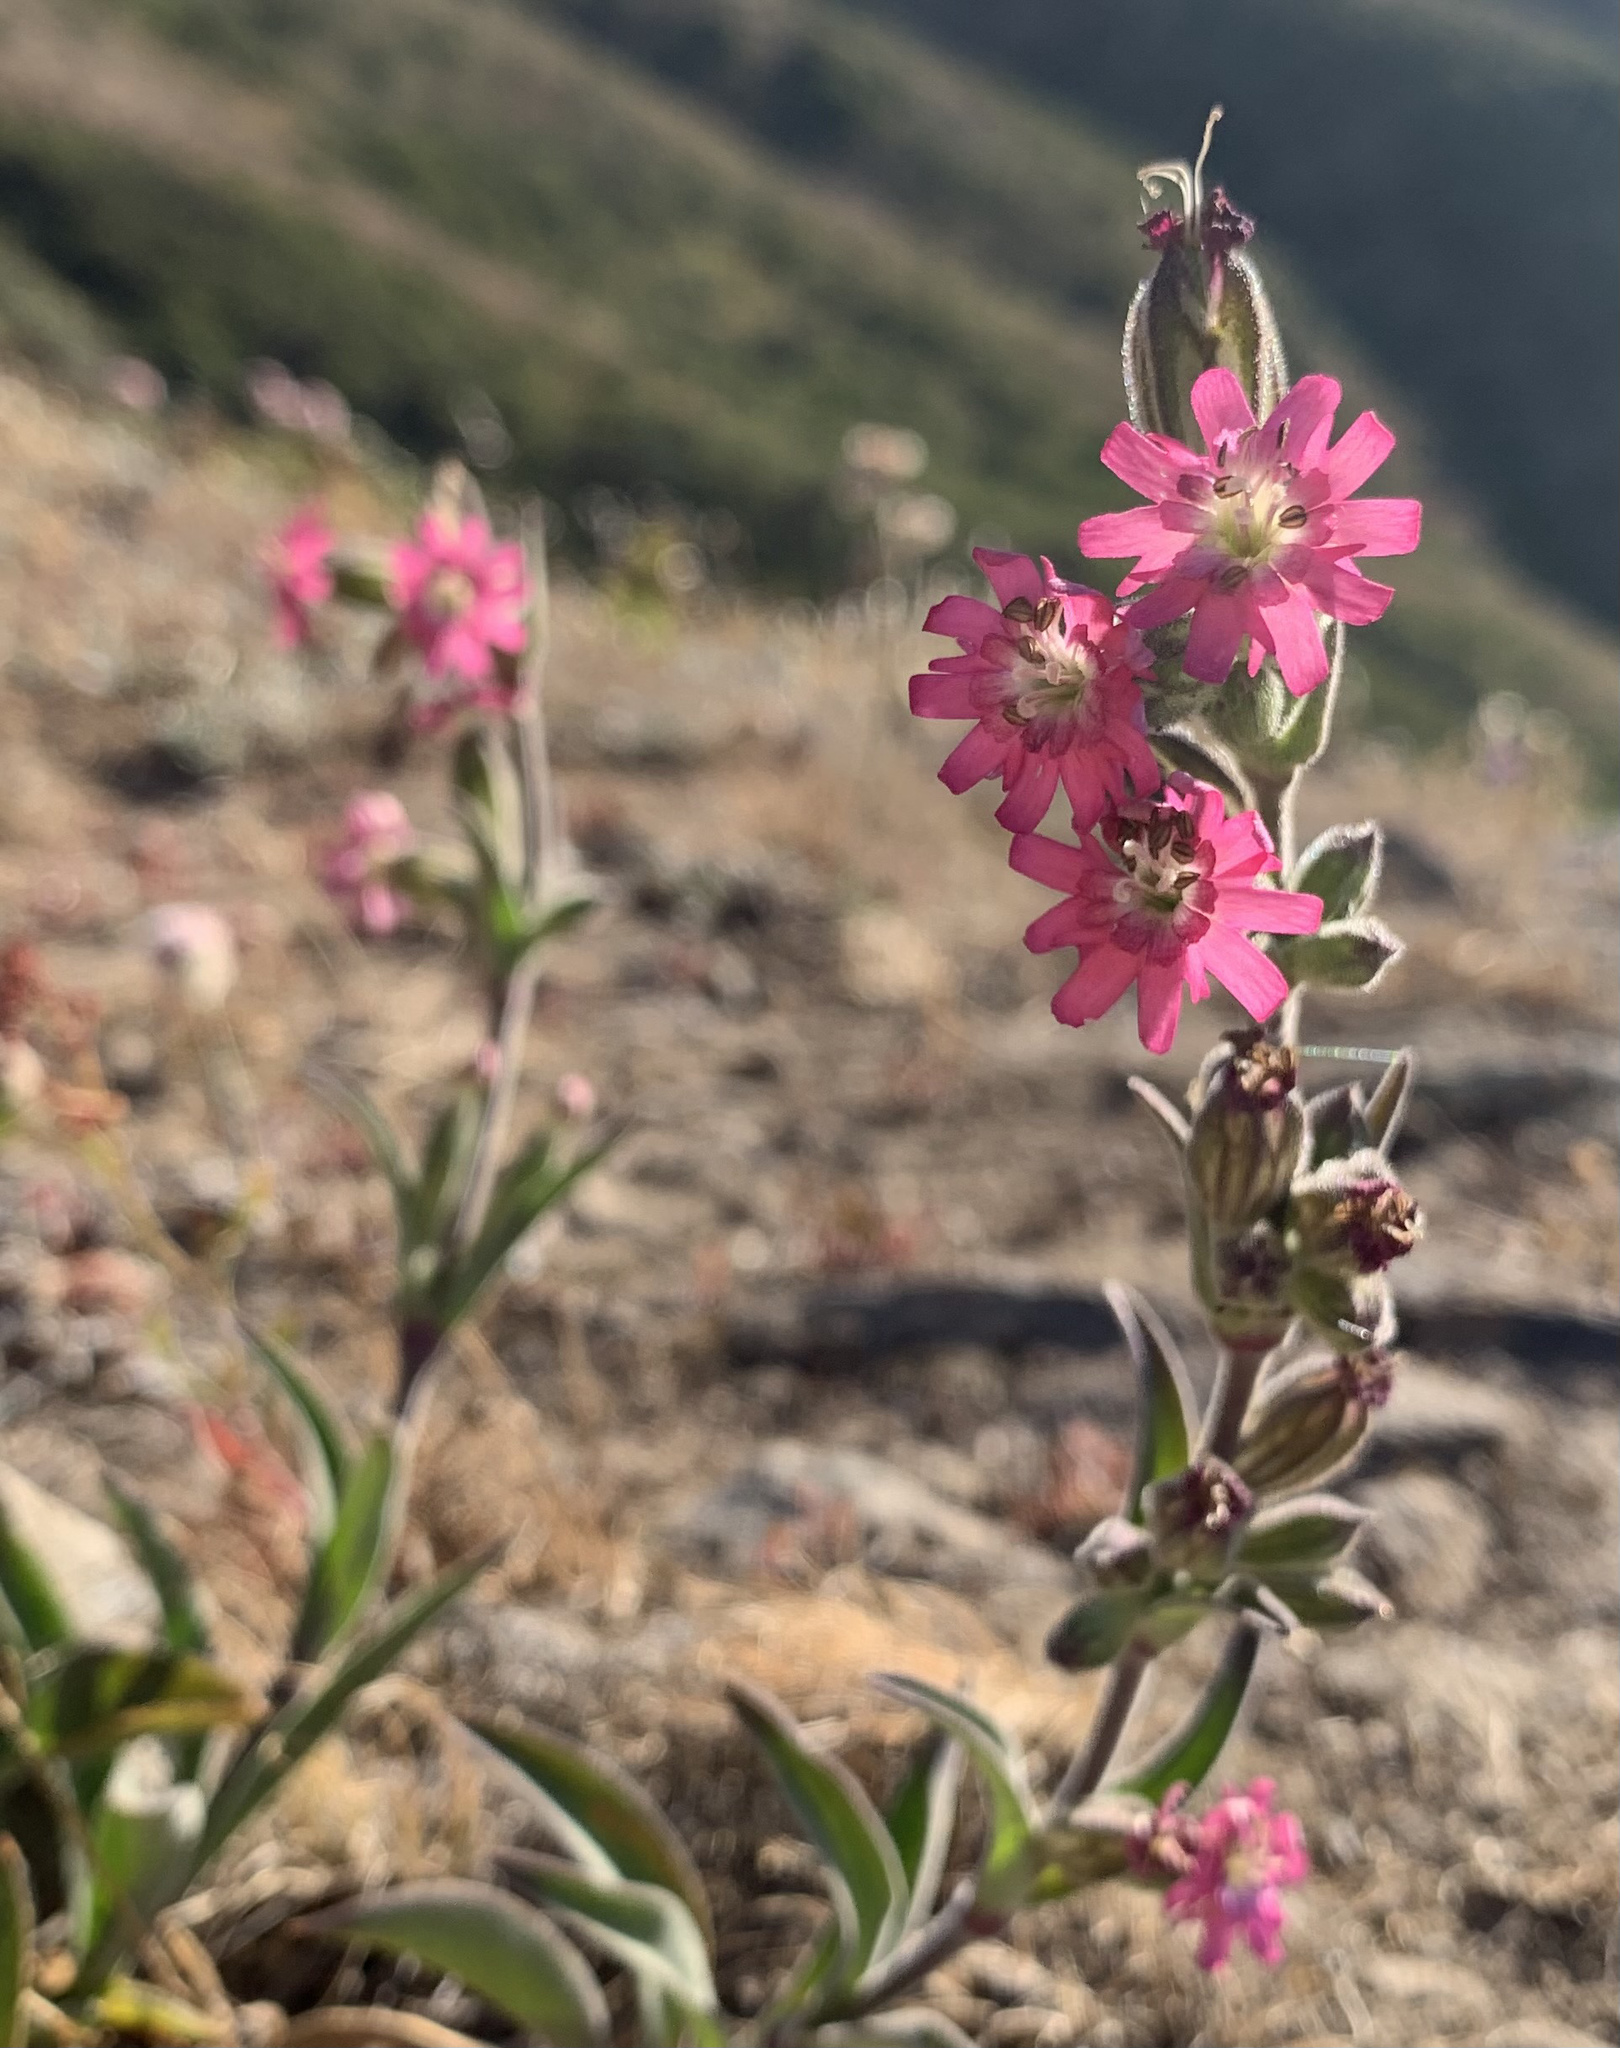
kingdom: Plantae
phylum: Tracheophyta
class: Magnoliopsida
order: Caryophyllales
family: Caryophyllaceae
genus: Silene
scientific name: Silene scouleri
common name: Scouler's campion
